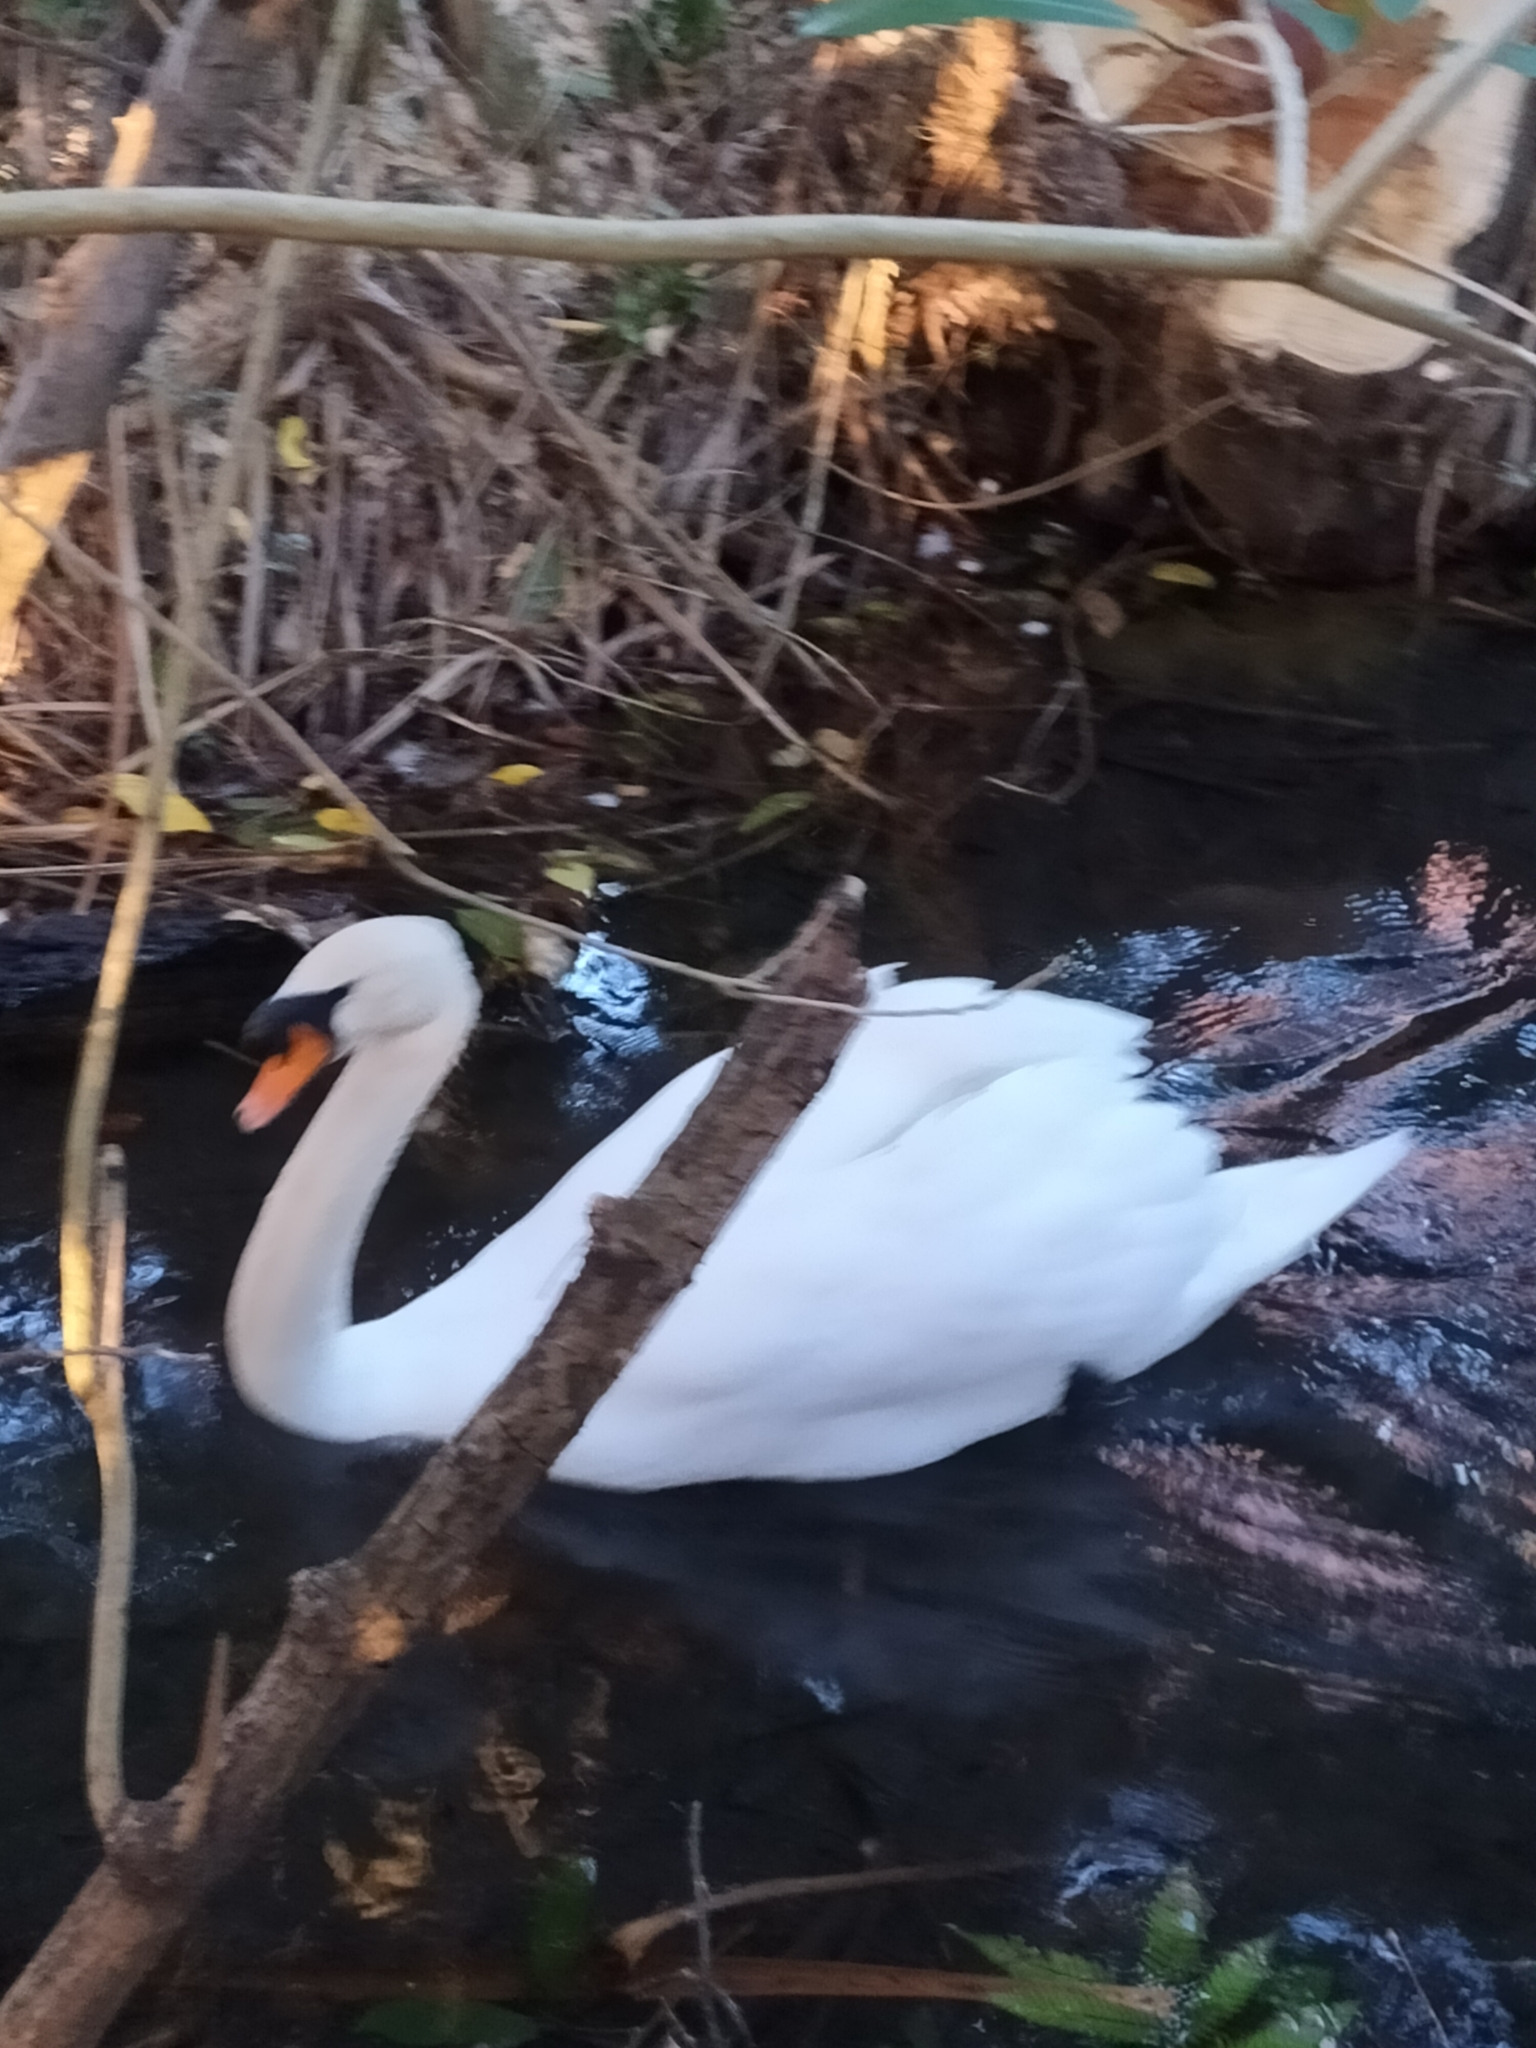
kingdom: Animalia
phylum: Chordata
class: Aves
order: Anseriformes
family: Anatidae
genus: Cygnus
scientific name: Cygnus olor
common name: Mute swan
